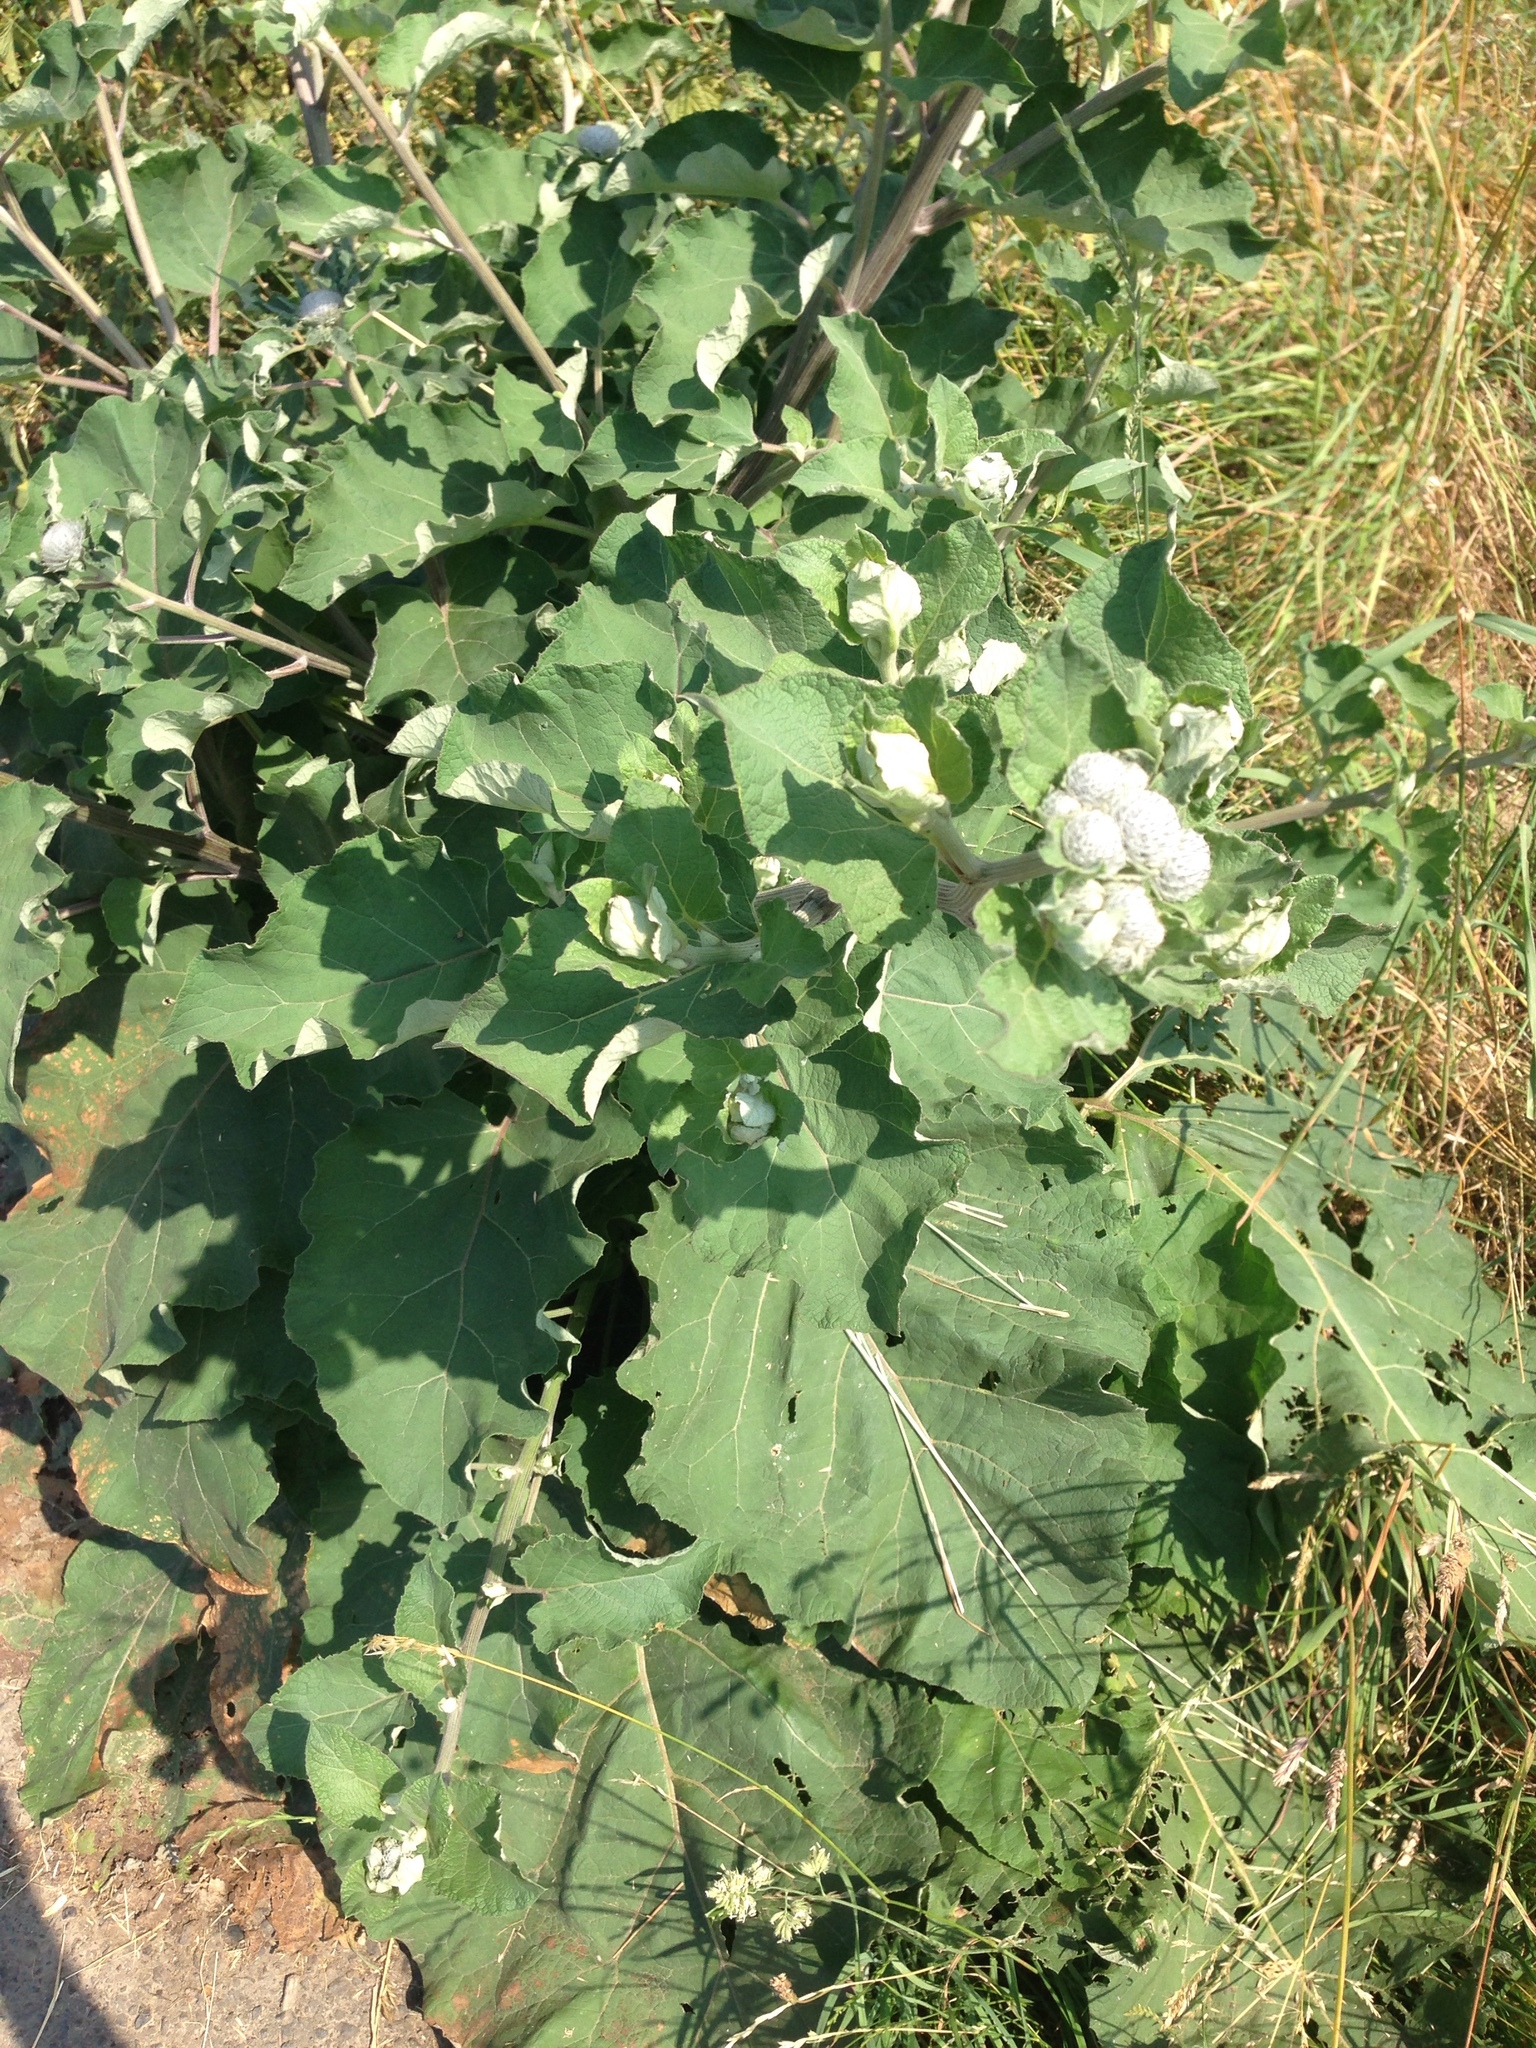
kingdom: Plantae
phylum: Tracheophyta
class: Magnoliopsida
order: Asterales
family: Asteraceae
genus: Arctium
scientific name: Arctium tomentosum
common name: Woolly burdock
